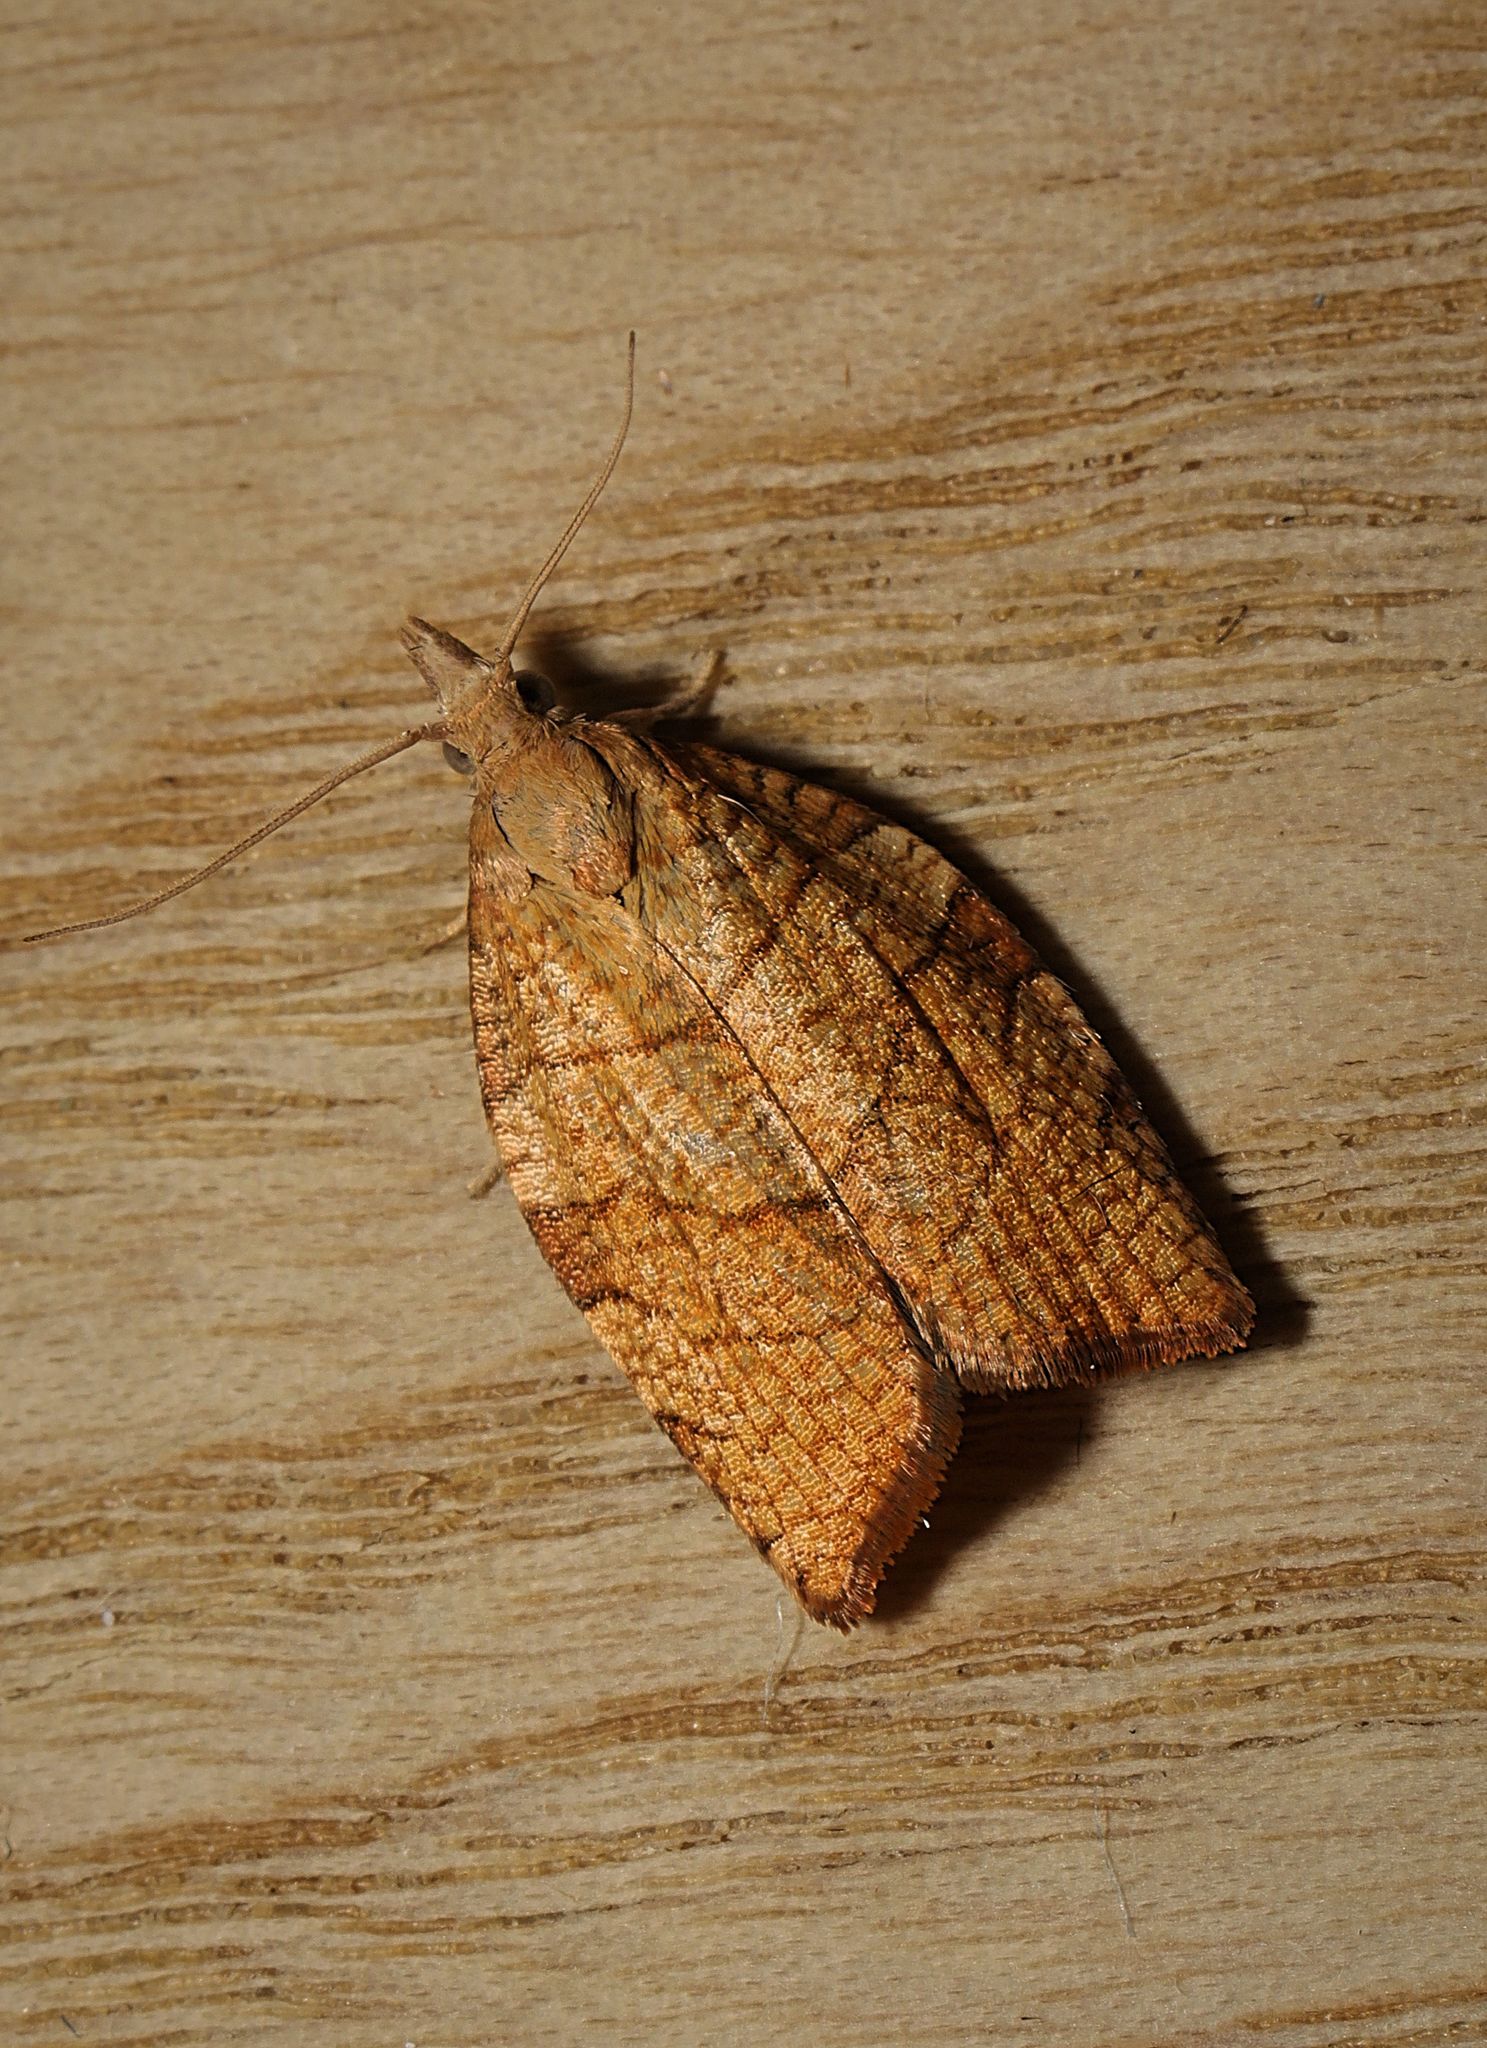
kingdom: Animalia
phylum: Arthropoda
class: Insecta
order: Lepidoptera
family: Tortricidae
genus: Pandemis
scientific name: Pandemis corylana
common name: Chequered fruit-tree tortrix
